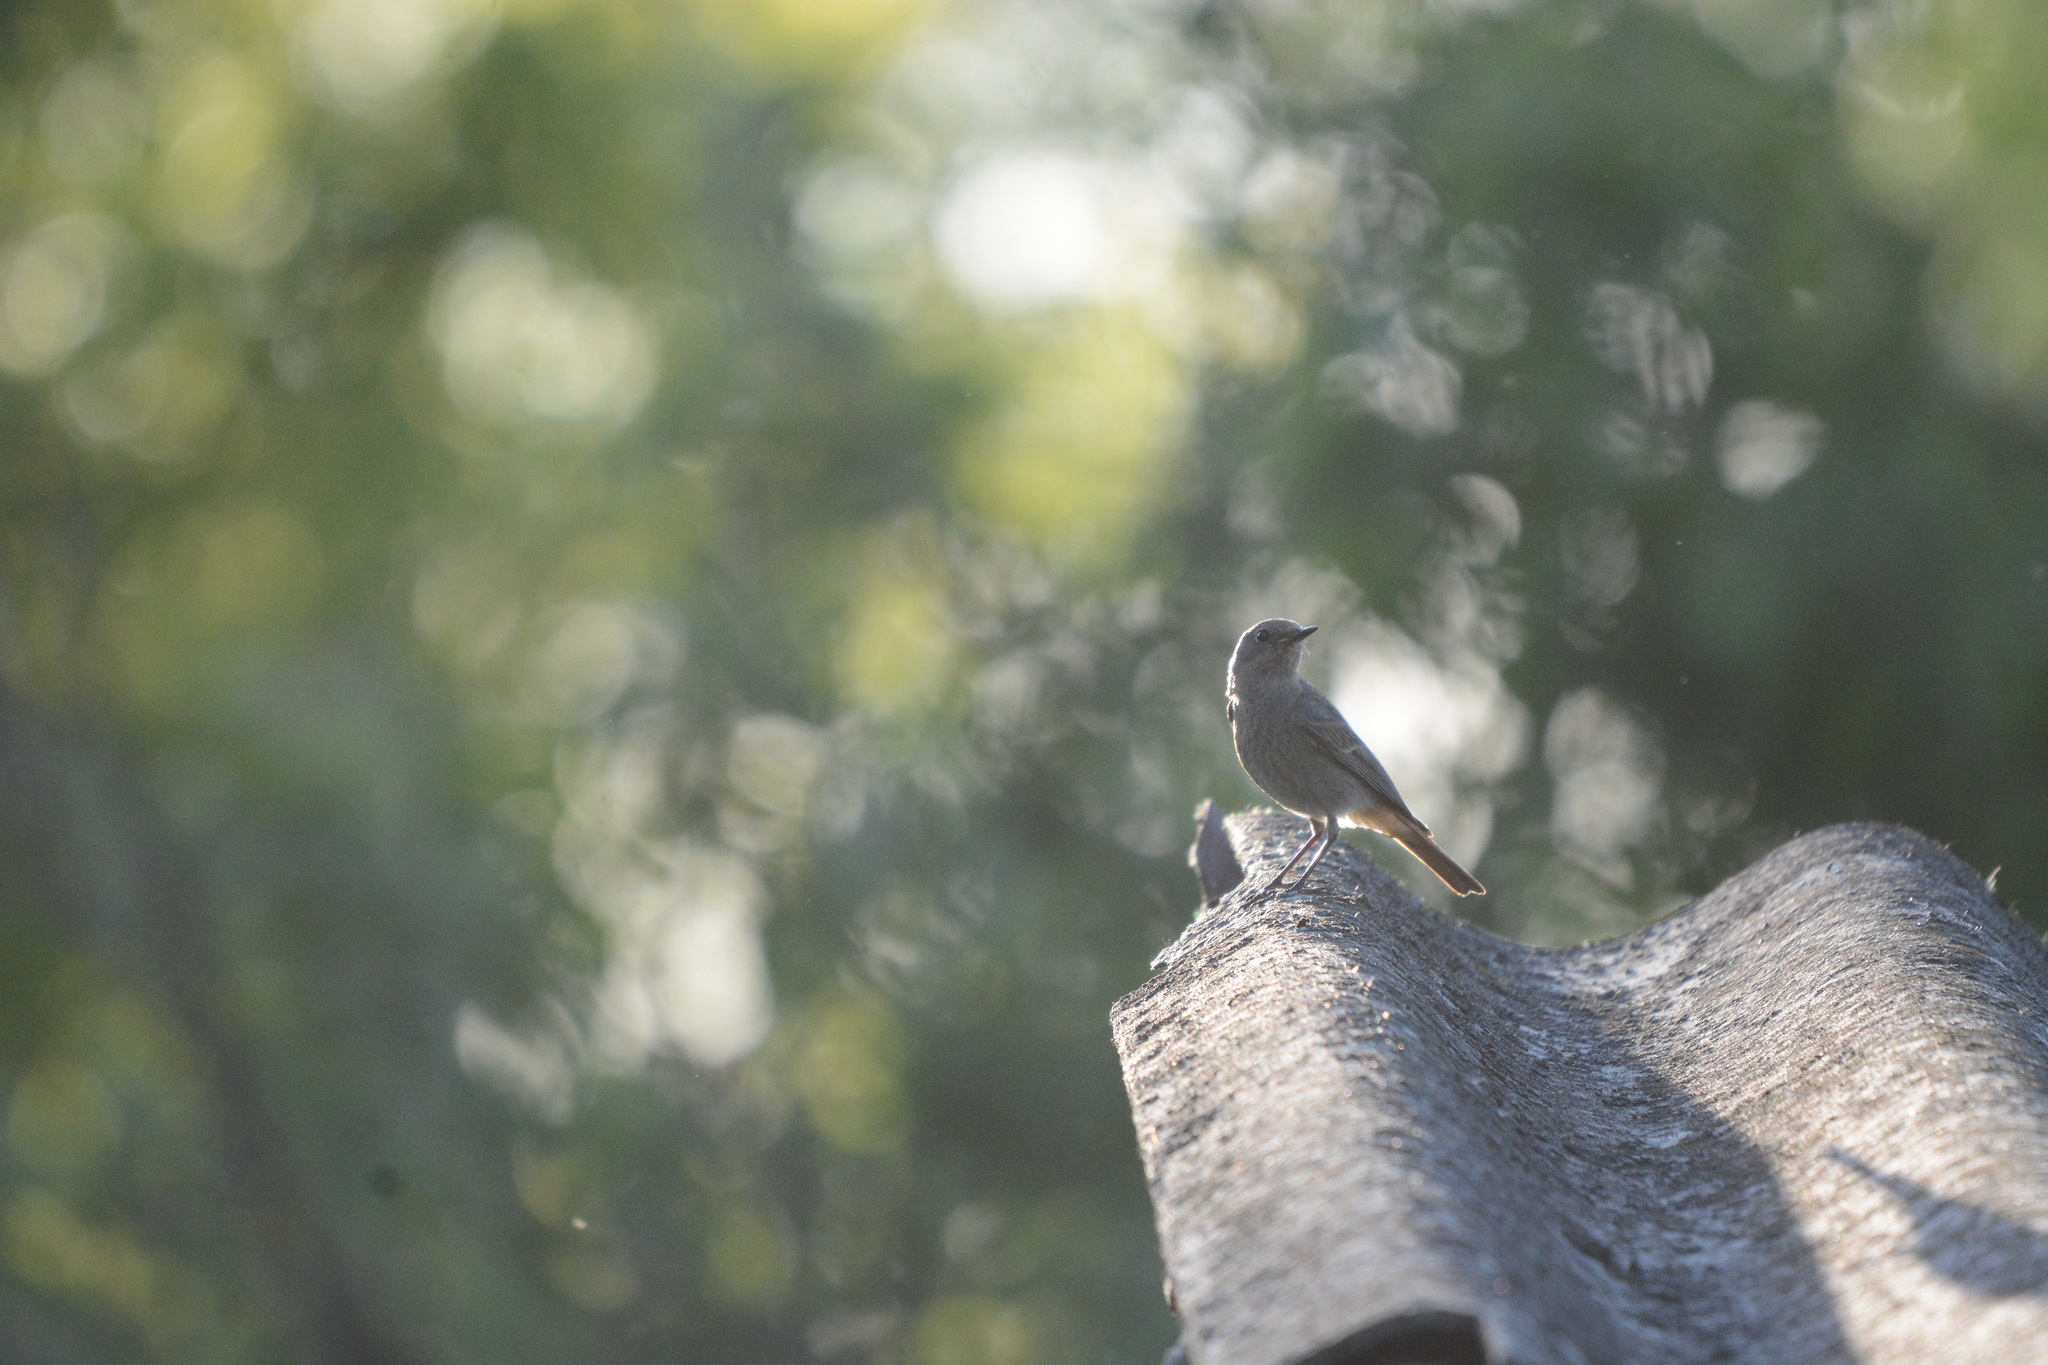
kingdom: Animalia
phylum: Chordata
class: Aves
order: Passeriformes
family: Muscicapidae
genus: Phoenicurus
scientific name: Phoenicurus ochruros
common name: Black redstart
